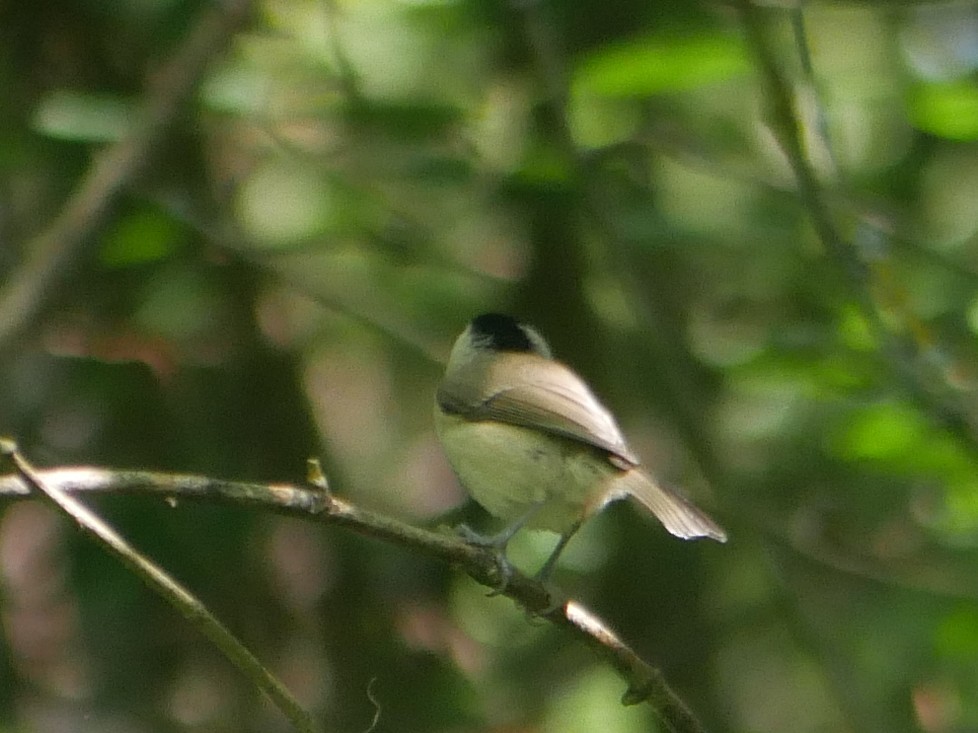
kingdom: Animalia
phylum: Chordata
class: Aves
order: Passeriformes
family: Paridae
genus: Poecile
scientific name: Poecile palustris
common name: Marsh tit
